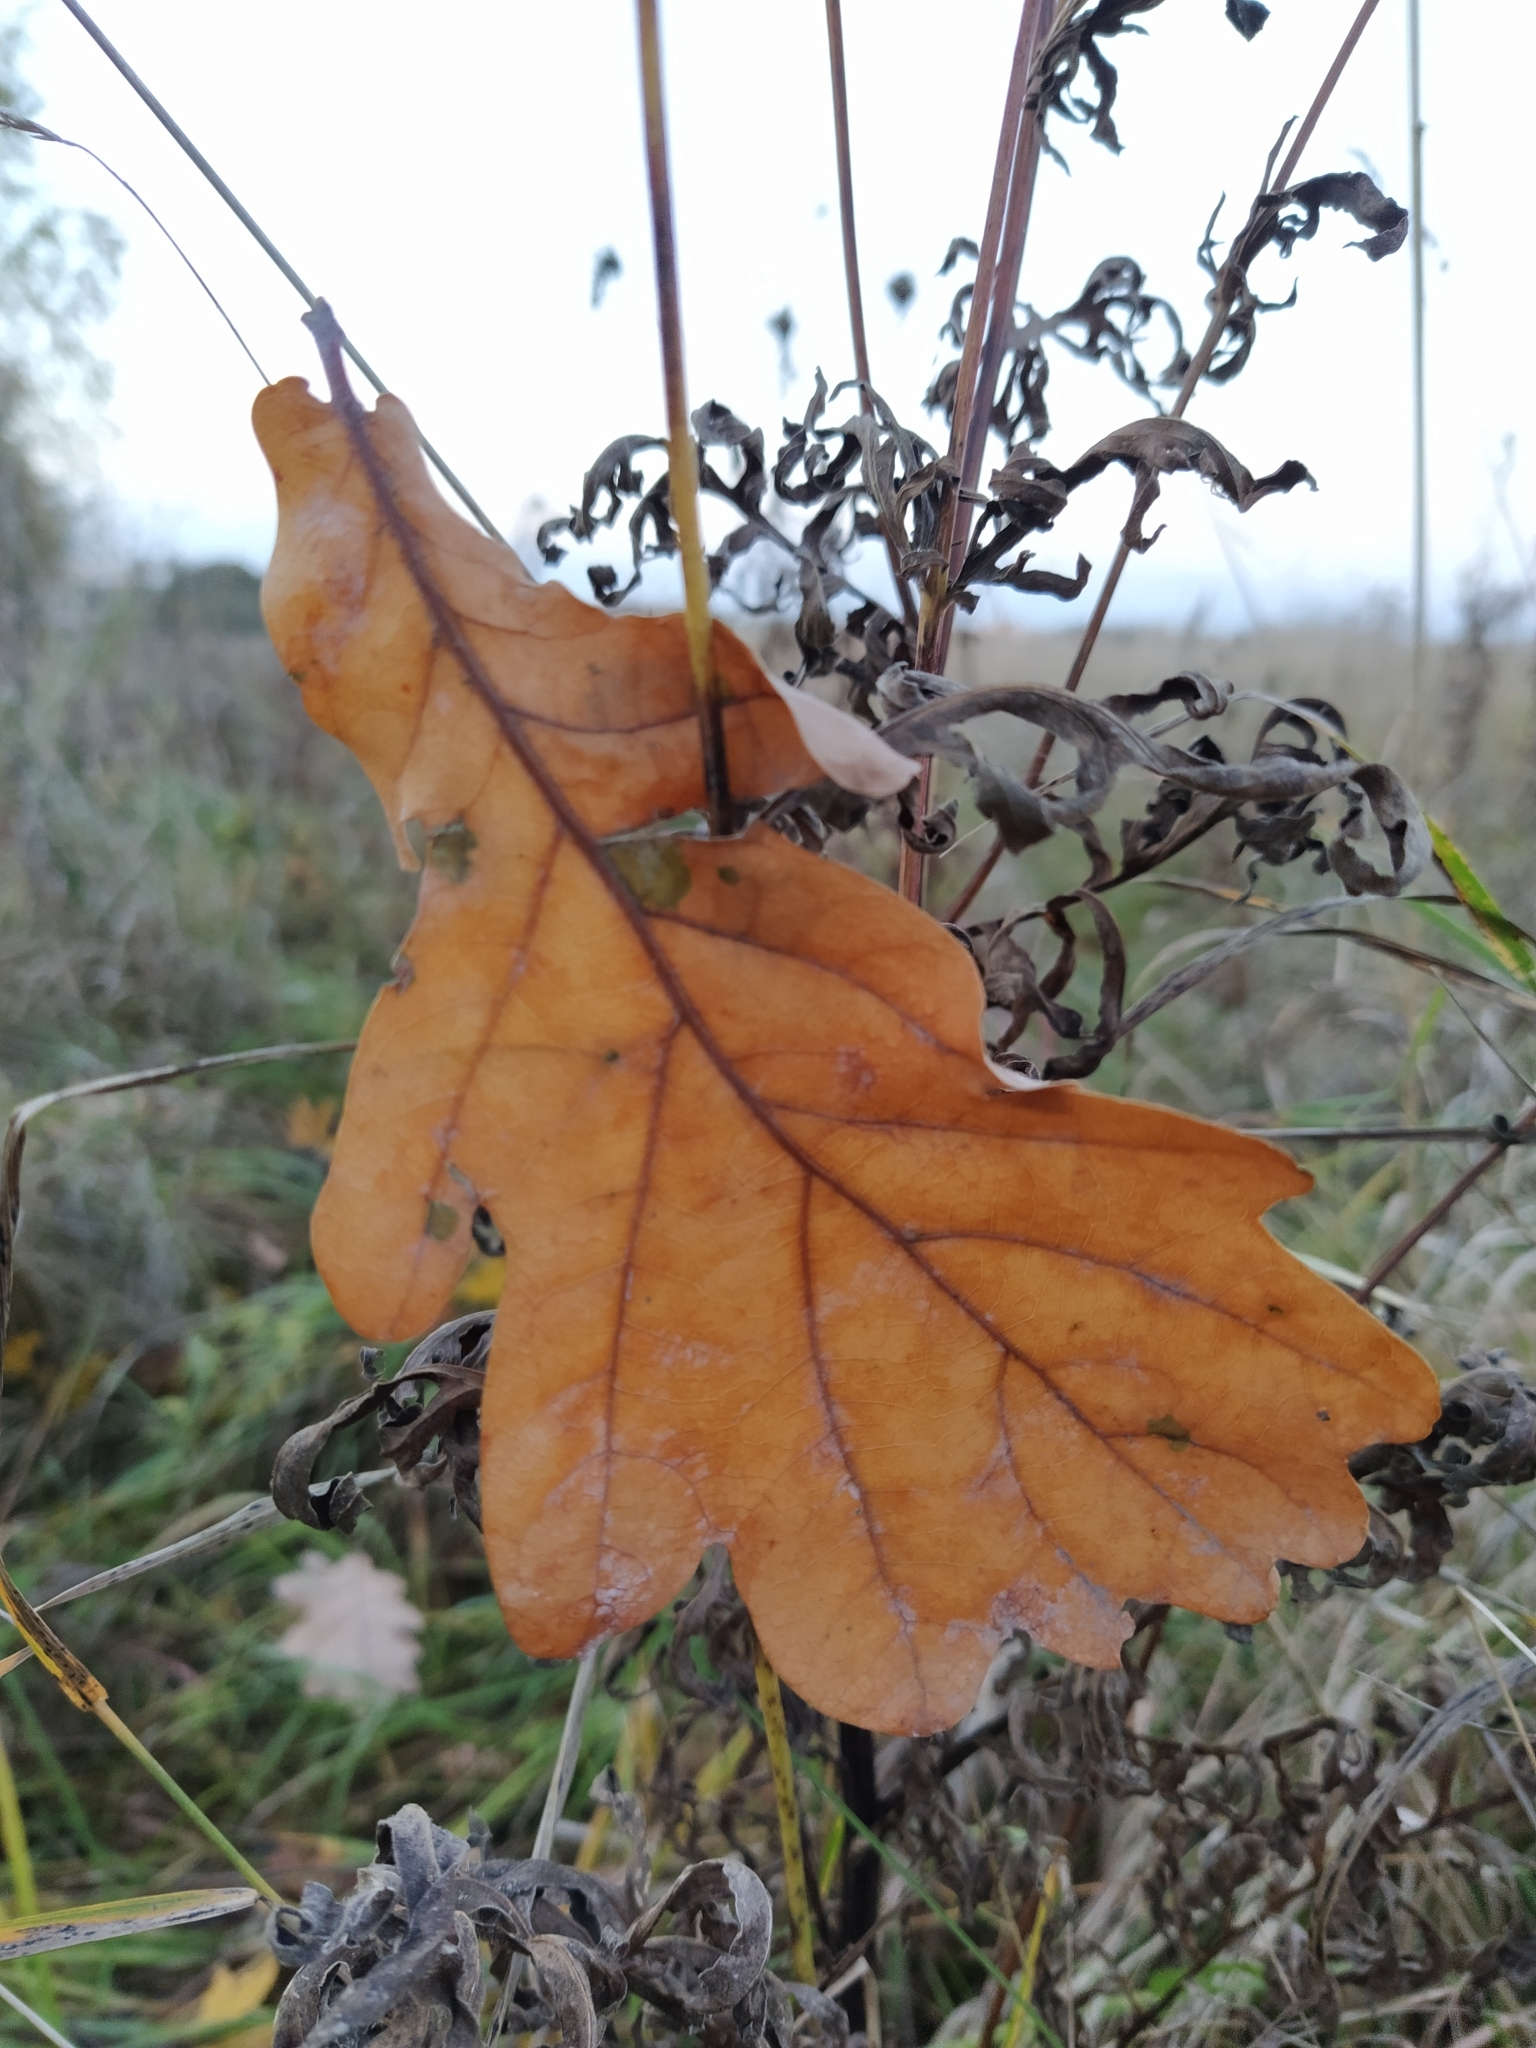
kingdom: Plantae
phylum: Tracheophyta
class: Magnoliopsida
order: Fagales
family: Fagaceae
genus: Quercus
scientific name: Quercus robur
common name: Pedunculate oak
